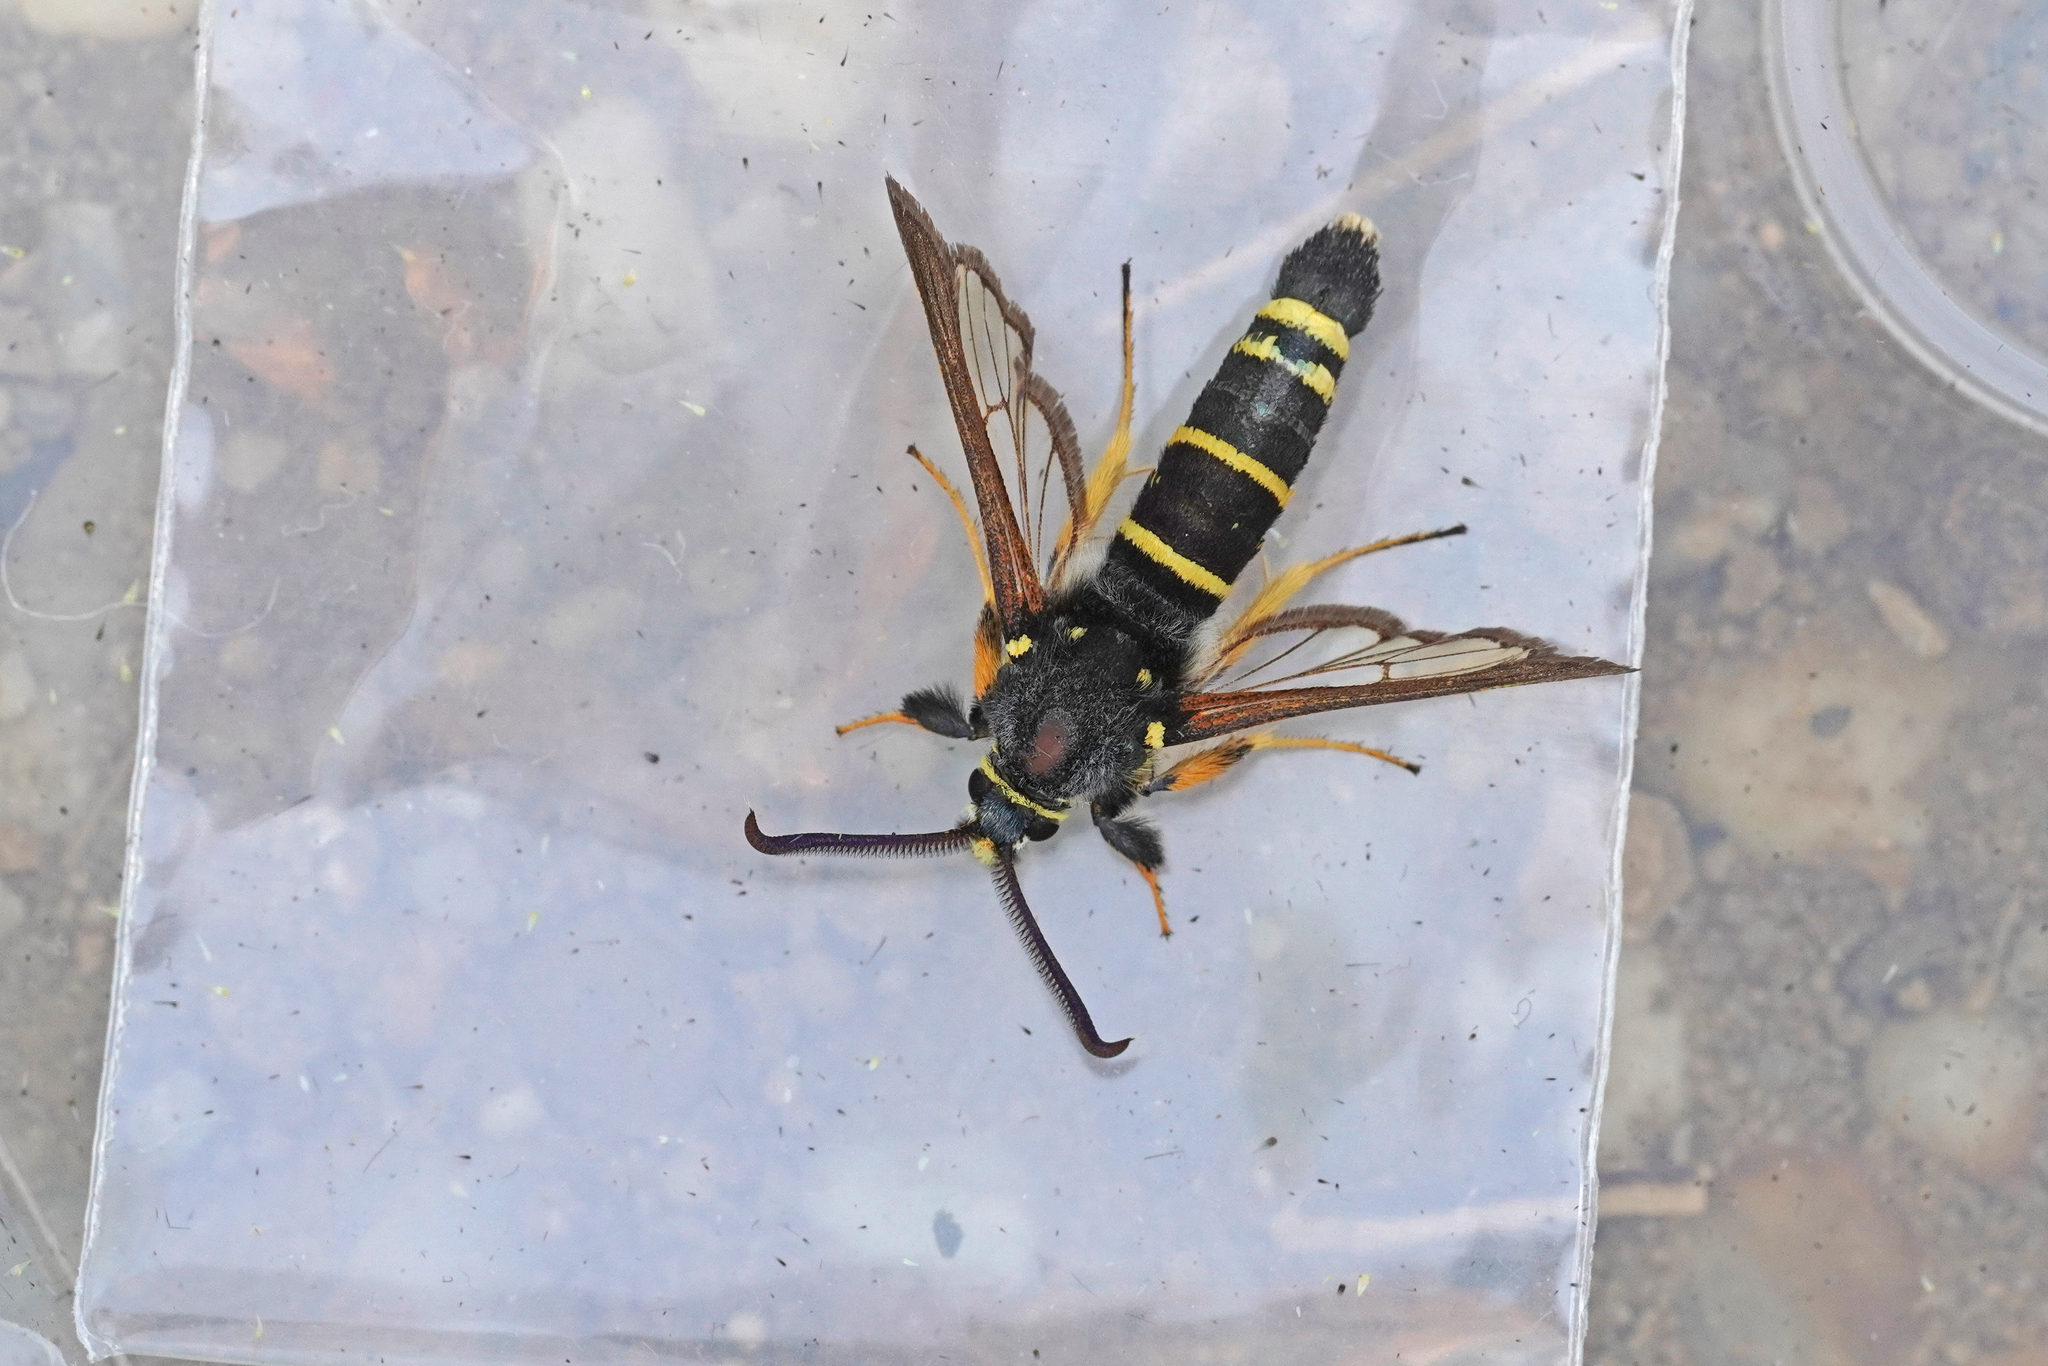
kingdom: Animalia
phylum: Arthropoda
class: Insecta
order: Lepidoptera
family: Sesiidae
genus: Paranthrene
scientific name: Paranthrene tabaniformis
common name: Dusky clearwing
